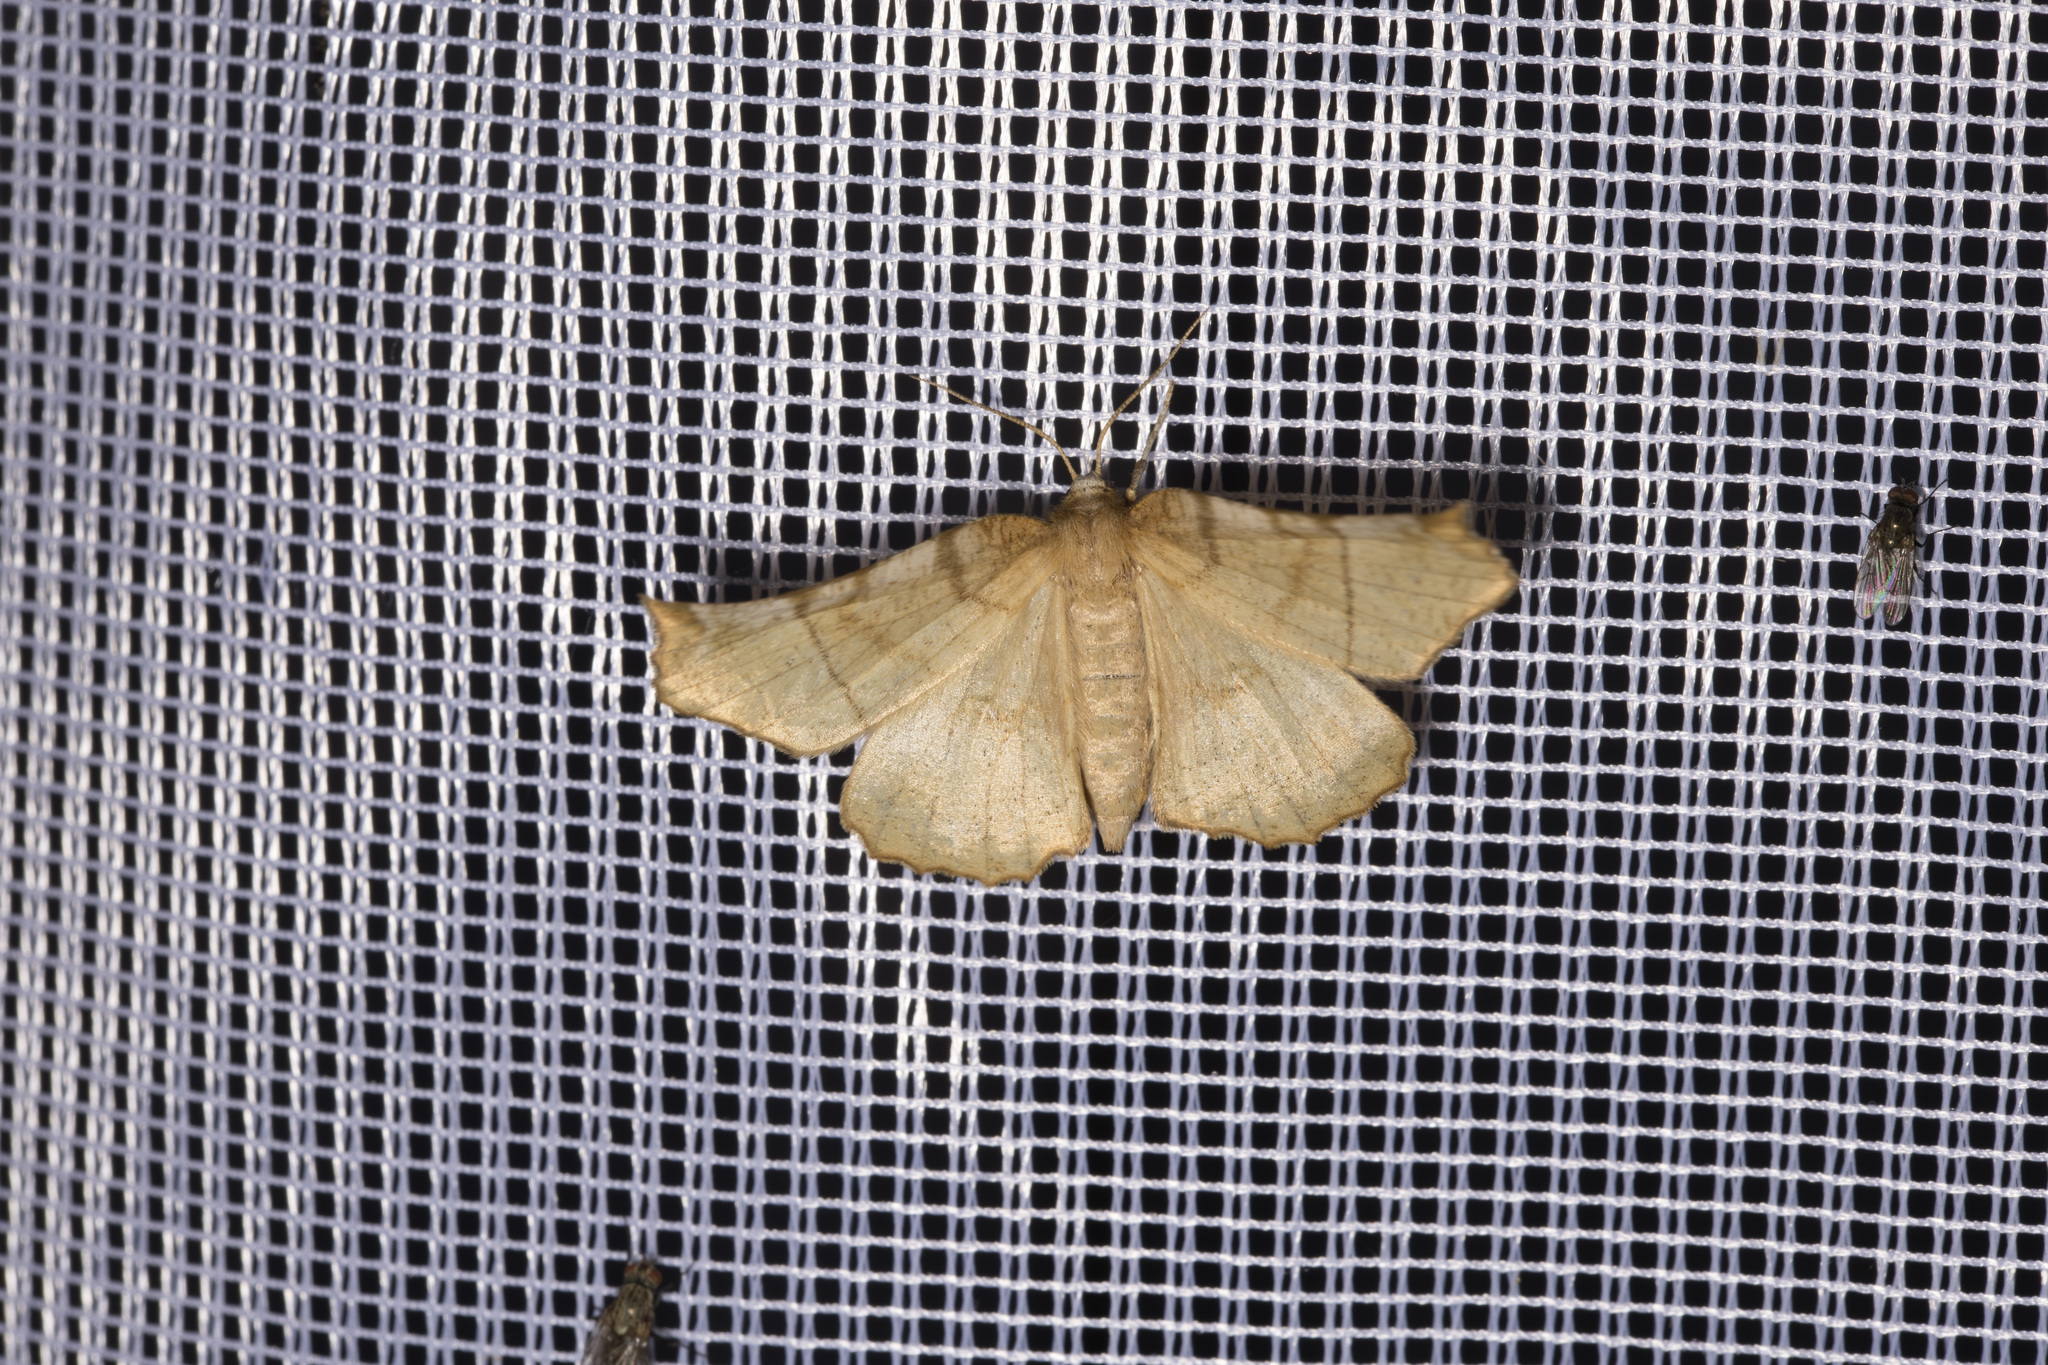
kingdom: Animalia
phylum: Arthropoda
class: Insecta
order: Lepidoptera
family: Geometridae
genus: Selenia
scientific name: Selenia dentaria
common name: Early thorn
